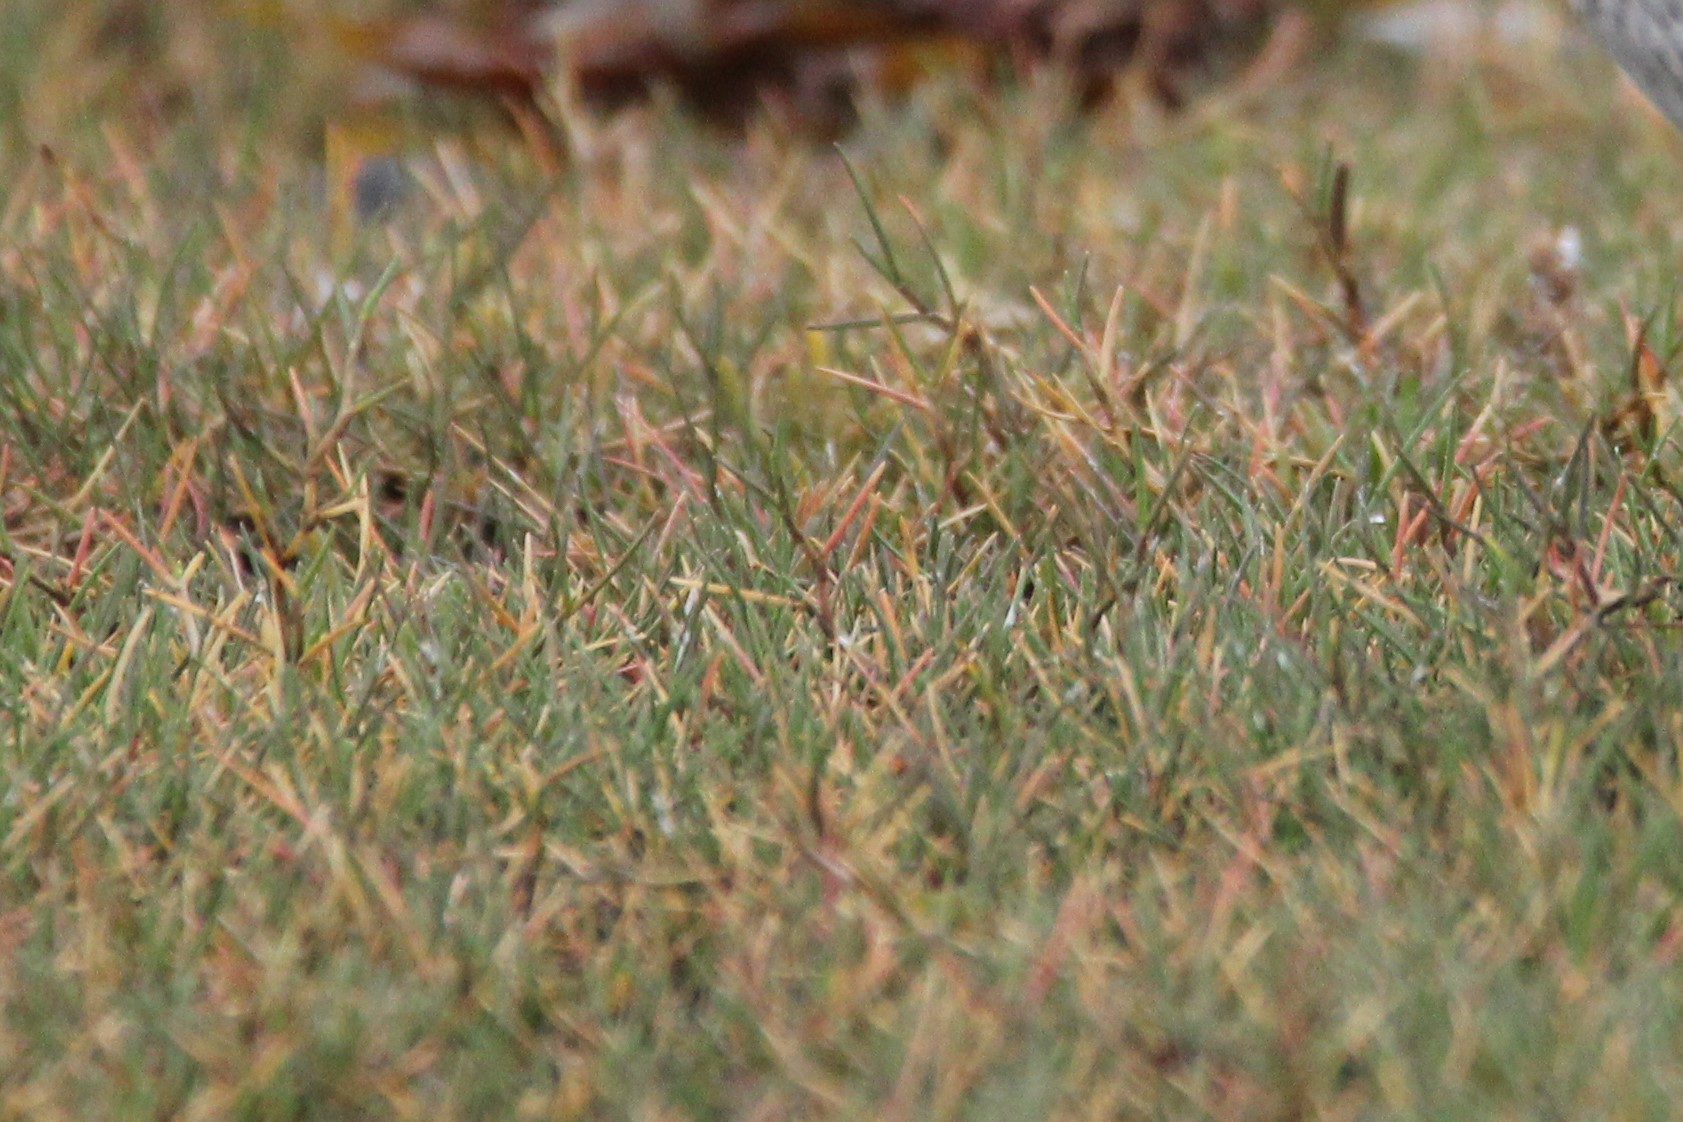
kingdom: Plantae
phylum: Tracheophyta
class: Liliopsida
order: Poales
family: Poaceae
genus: Puccinellia
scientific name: Puccinellia phryganodes
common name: Creeping alkaligrass
